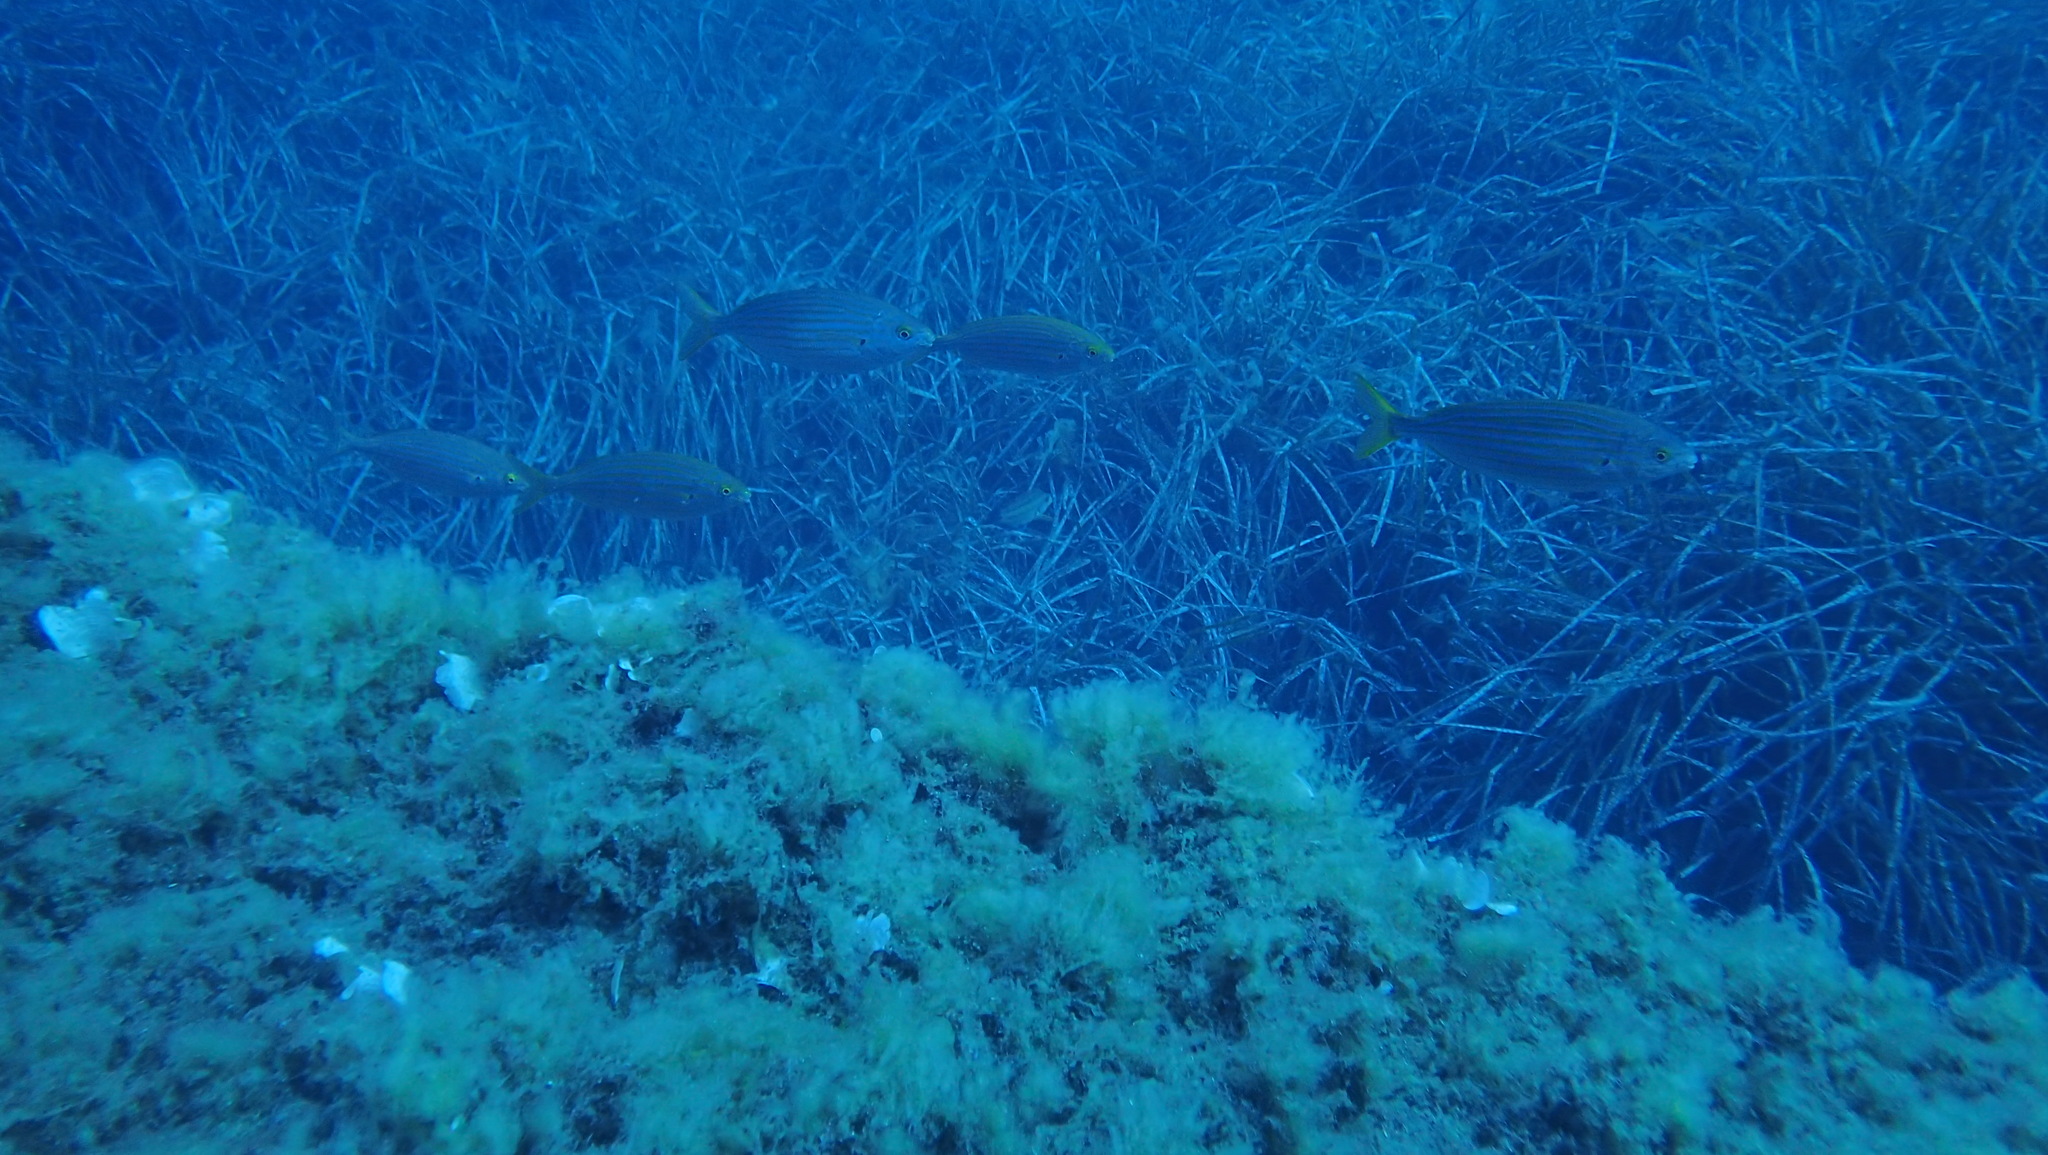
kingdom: Animalia
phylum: Chordata
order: Perciformes
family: Sparidae
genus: Sarpa
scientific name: Sarpa salpa
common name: Salema
